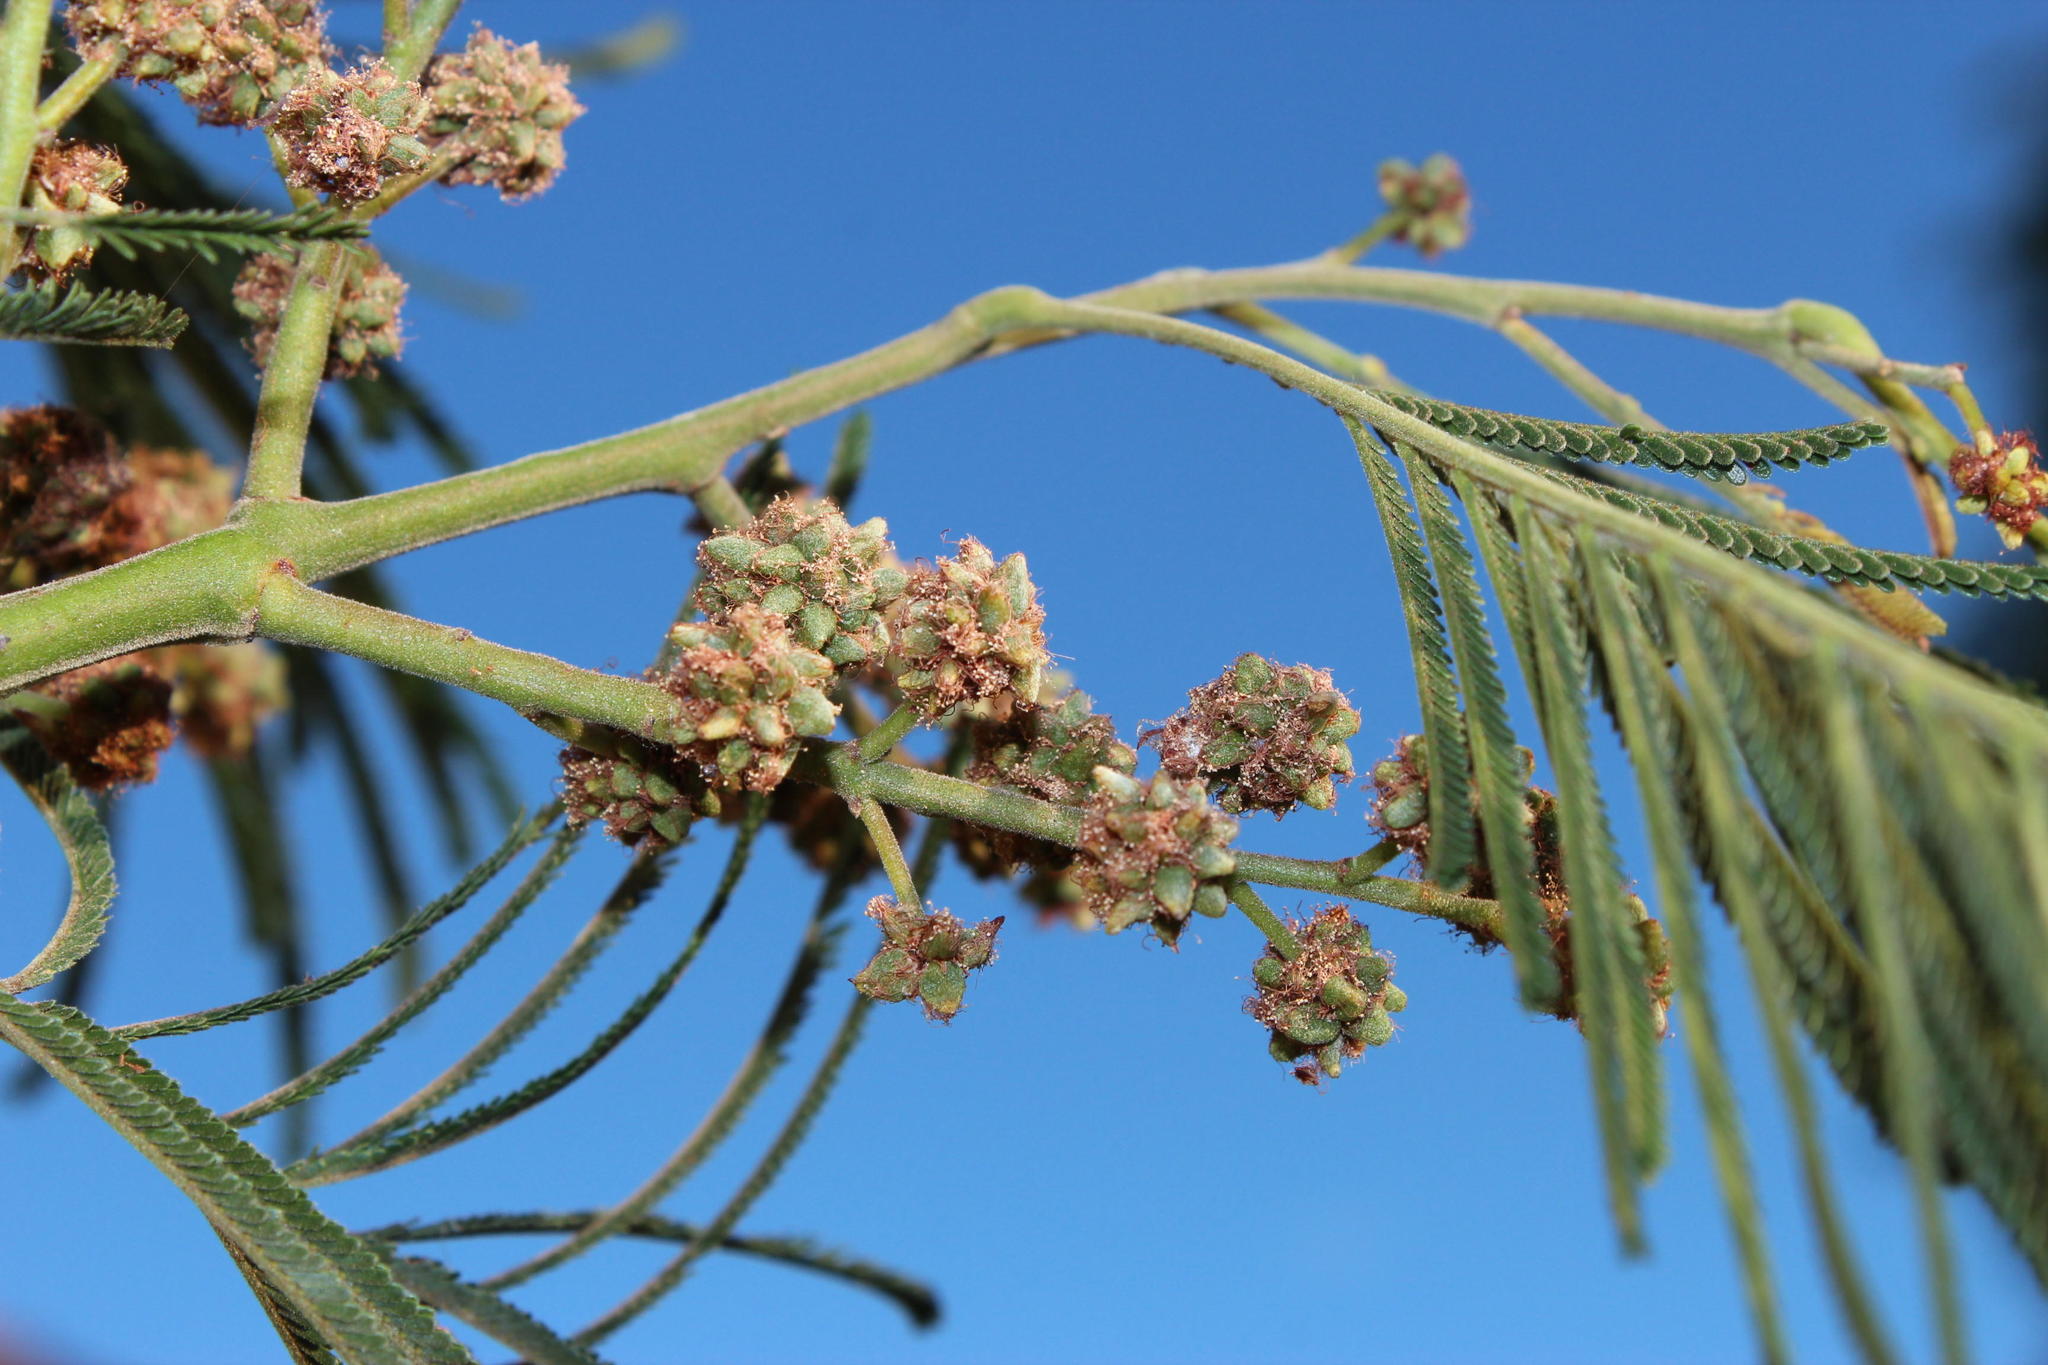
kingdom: Animalia
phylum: Arthropoda
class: Insecta
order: Diptera
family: Cecidomyiidae
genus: Dasineura
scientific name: Dasineura rubiformis
